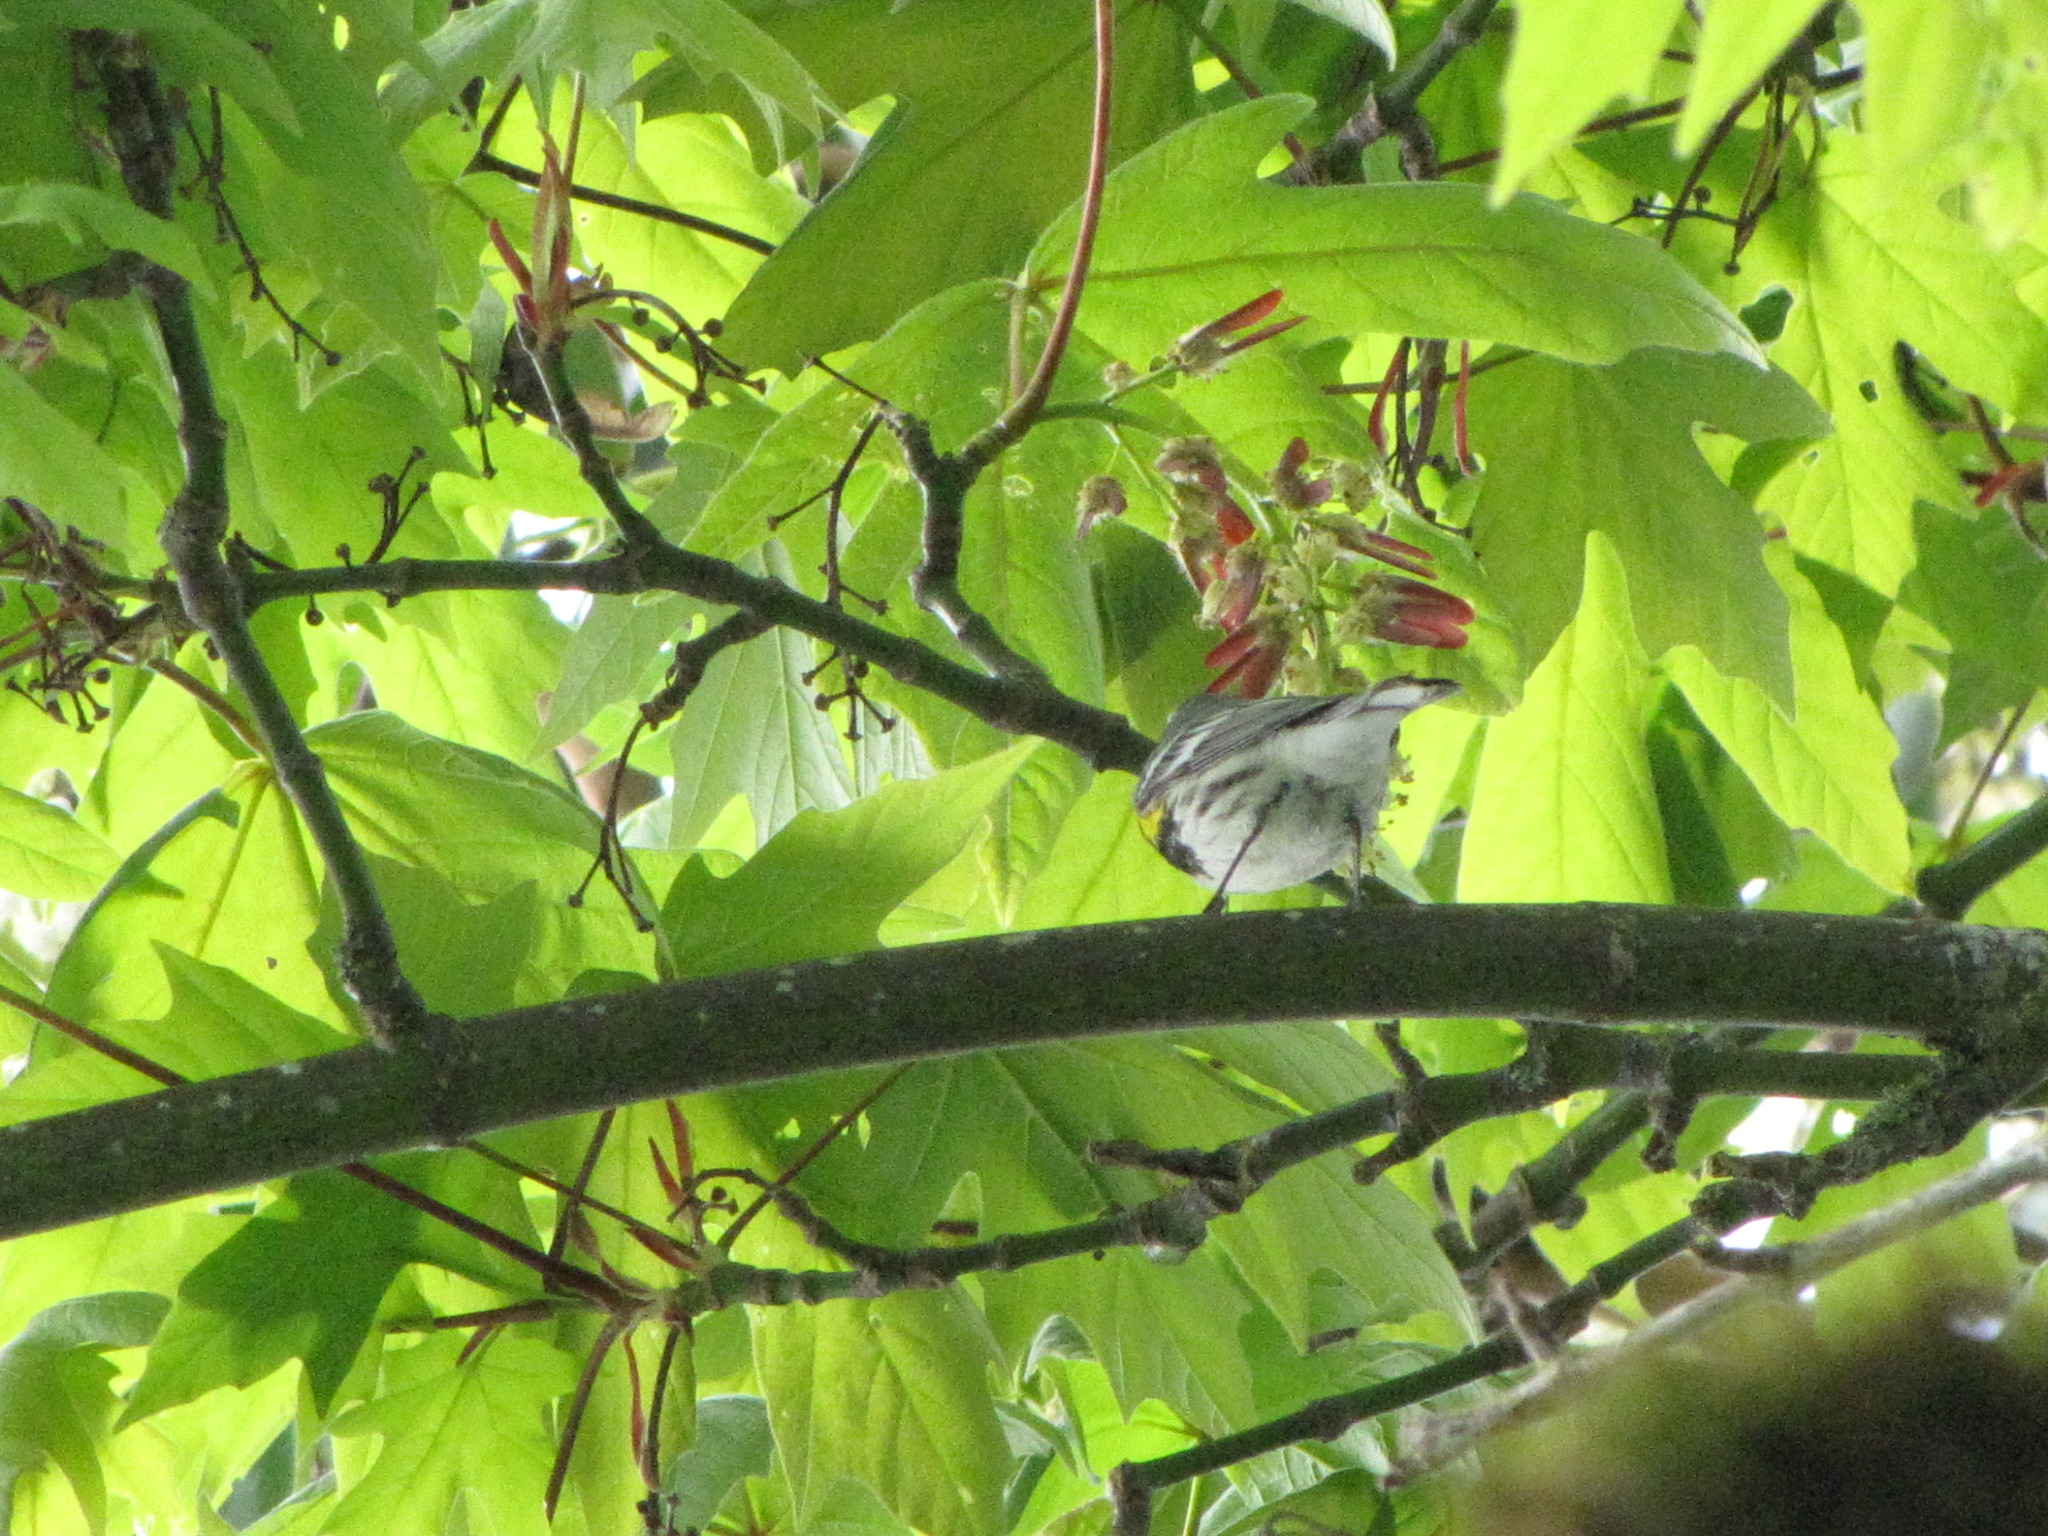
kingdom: Animalia
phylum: Chordata
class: Aves
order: Passeriformes
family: Parulidae
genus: Setophaga
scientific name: Setophaga coronata
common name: Myrtle warbler
